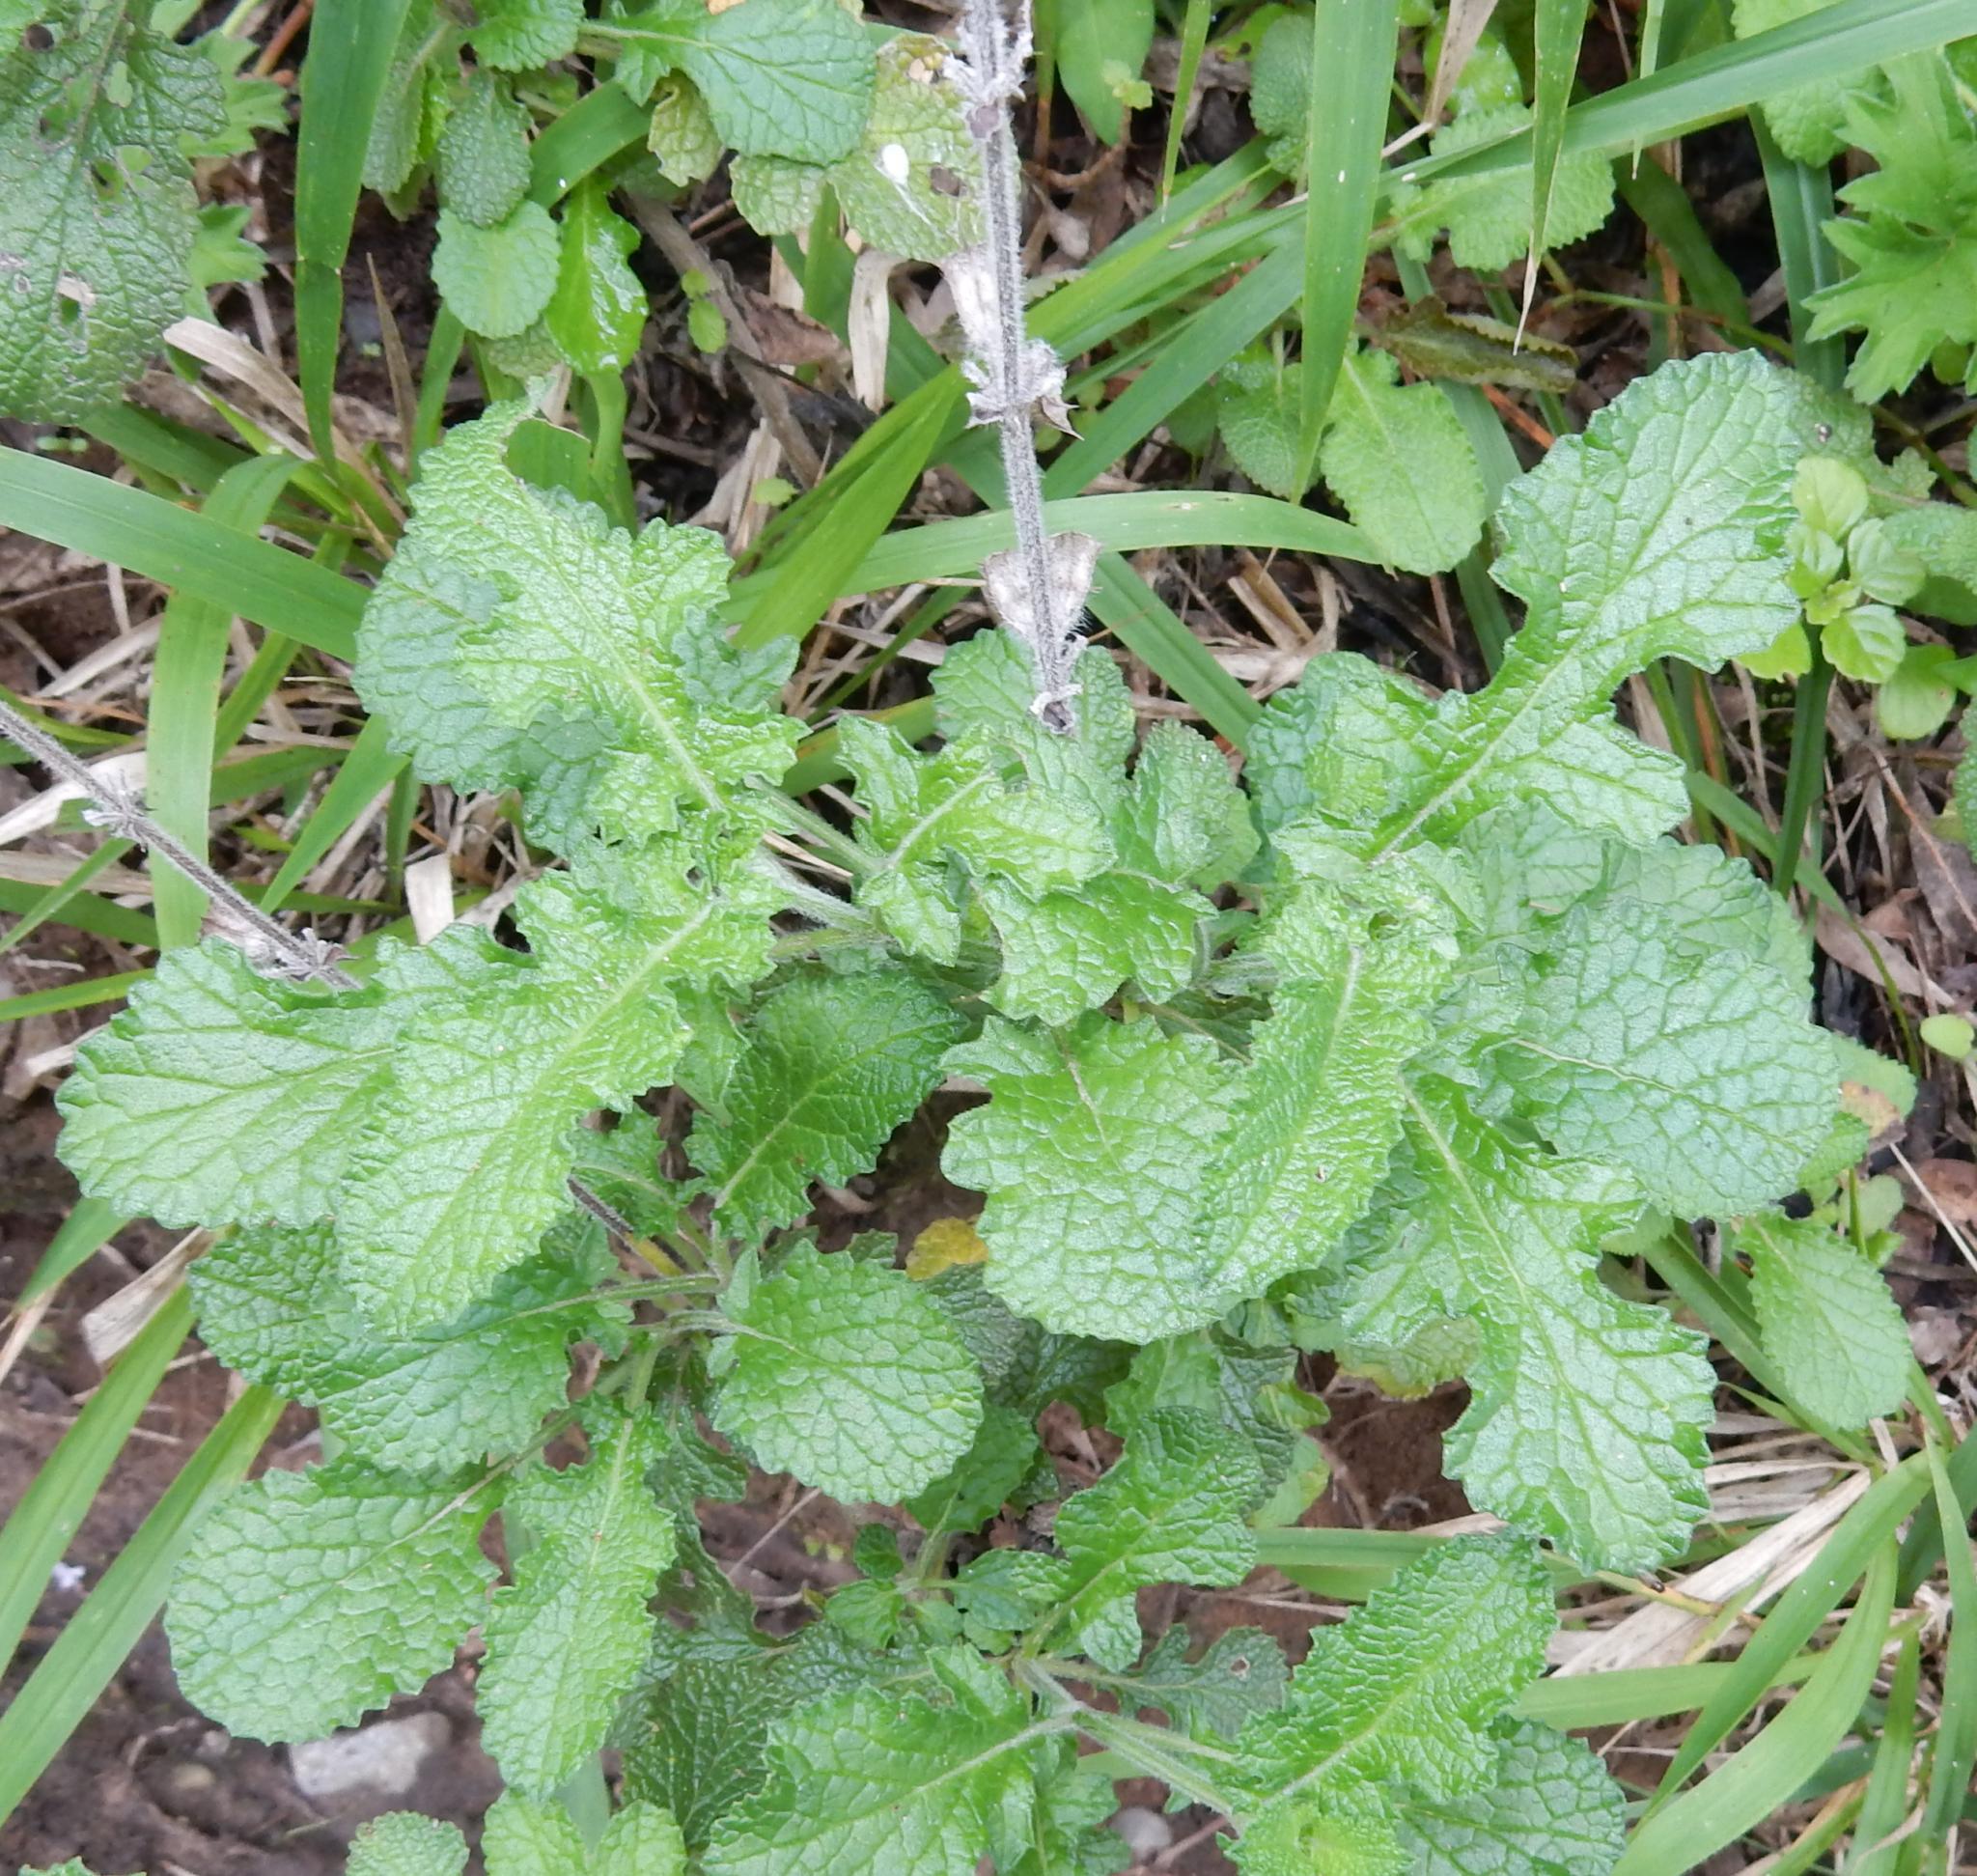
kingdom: Plantae
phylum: Tracheophyta
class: Magnoliopsida
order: Lamiales
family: Lamiaceae
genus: Salvia
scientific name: Salvia scabra
